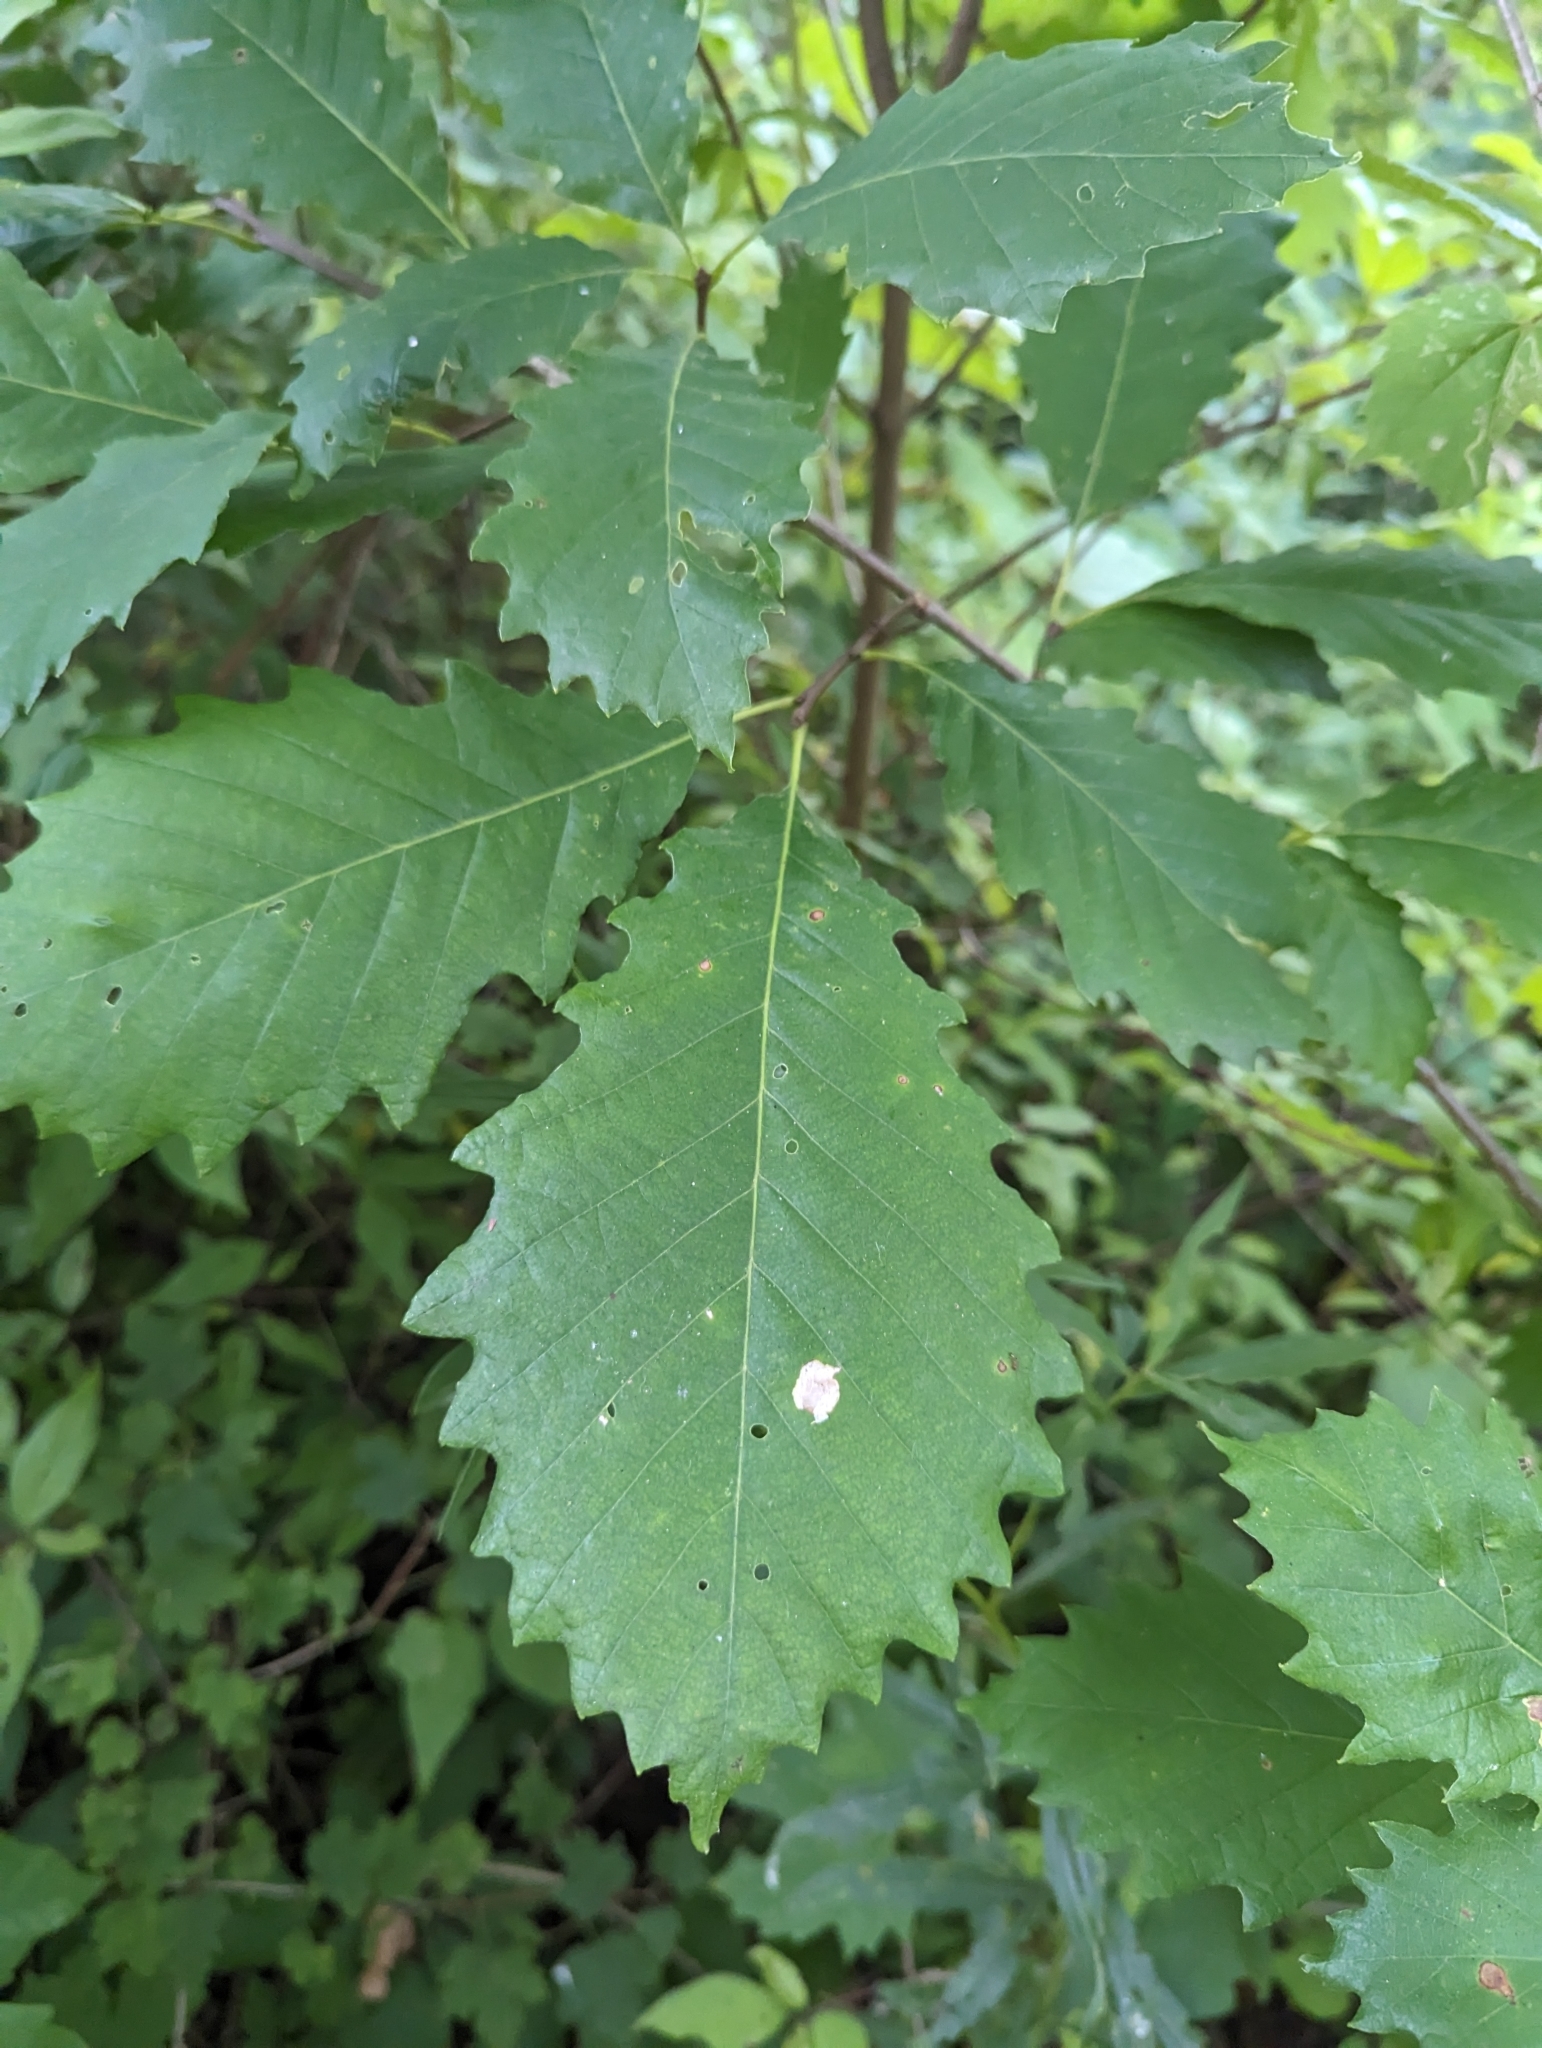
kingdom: Plantae
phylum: Tracheophyta
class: Magnoliopsida
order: Fagales
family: Fagaceae
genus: Quercus
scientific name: Quercus muehlenbergii
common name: Chinkapin oak
